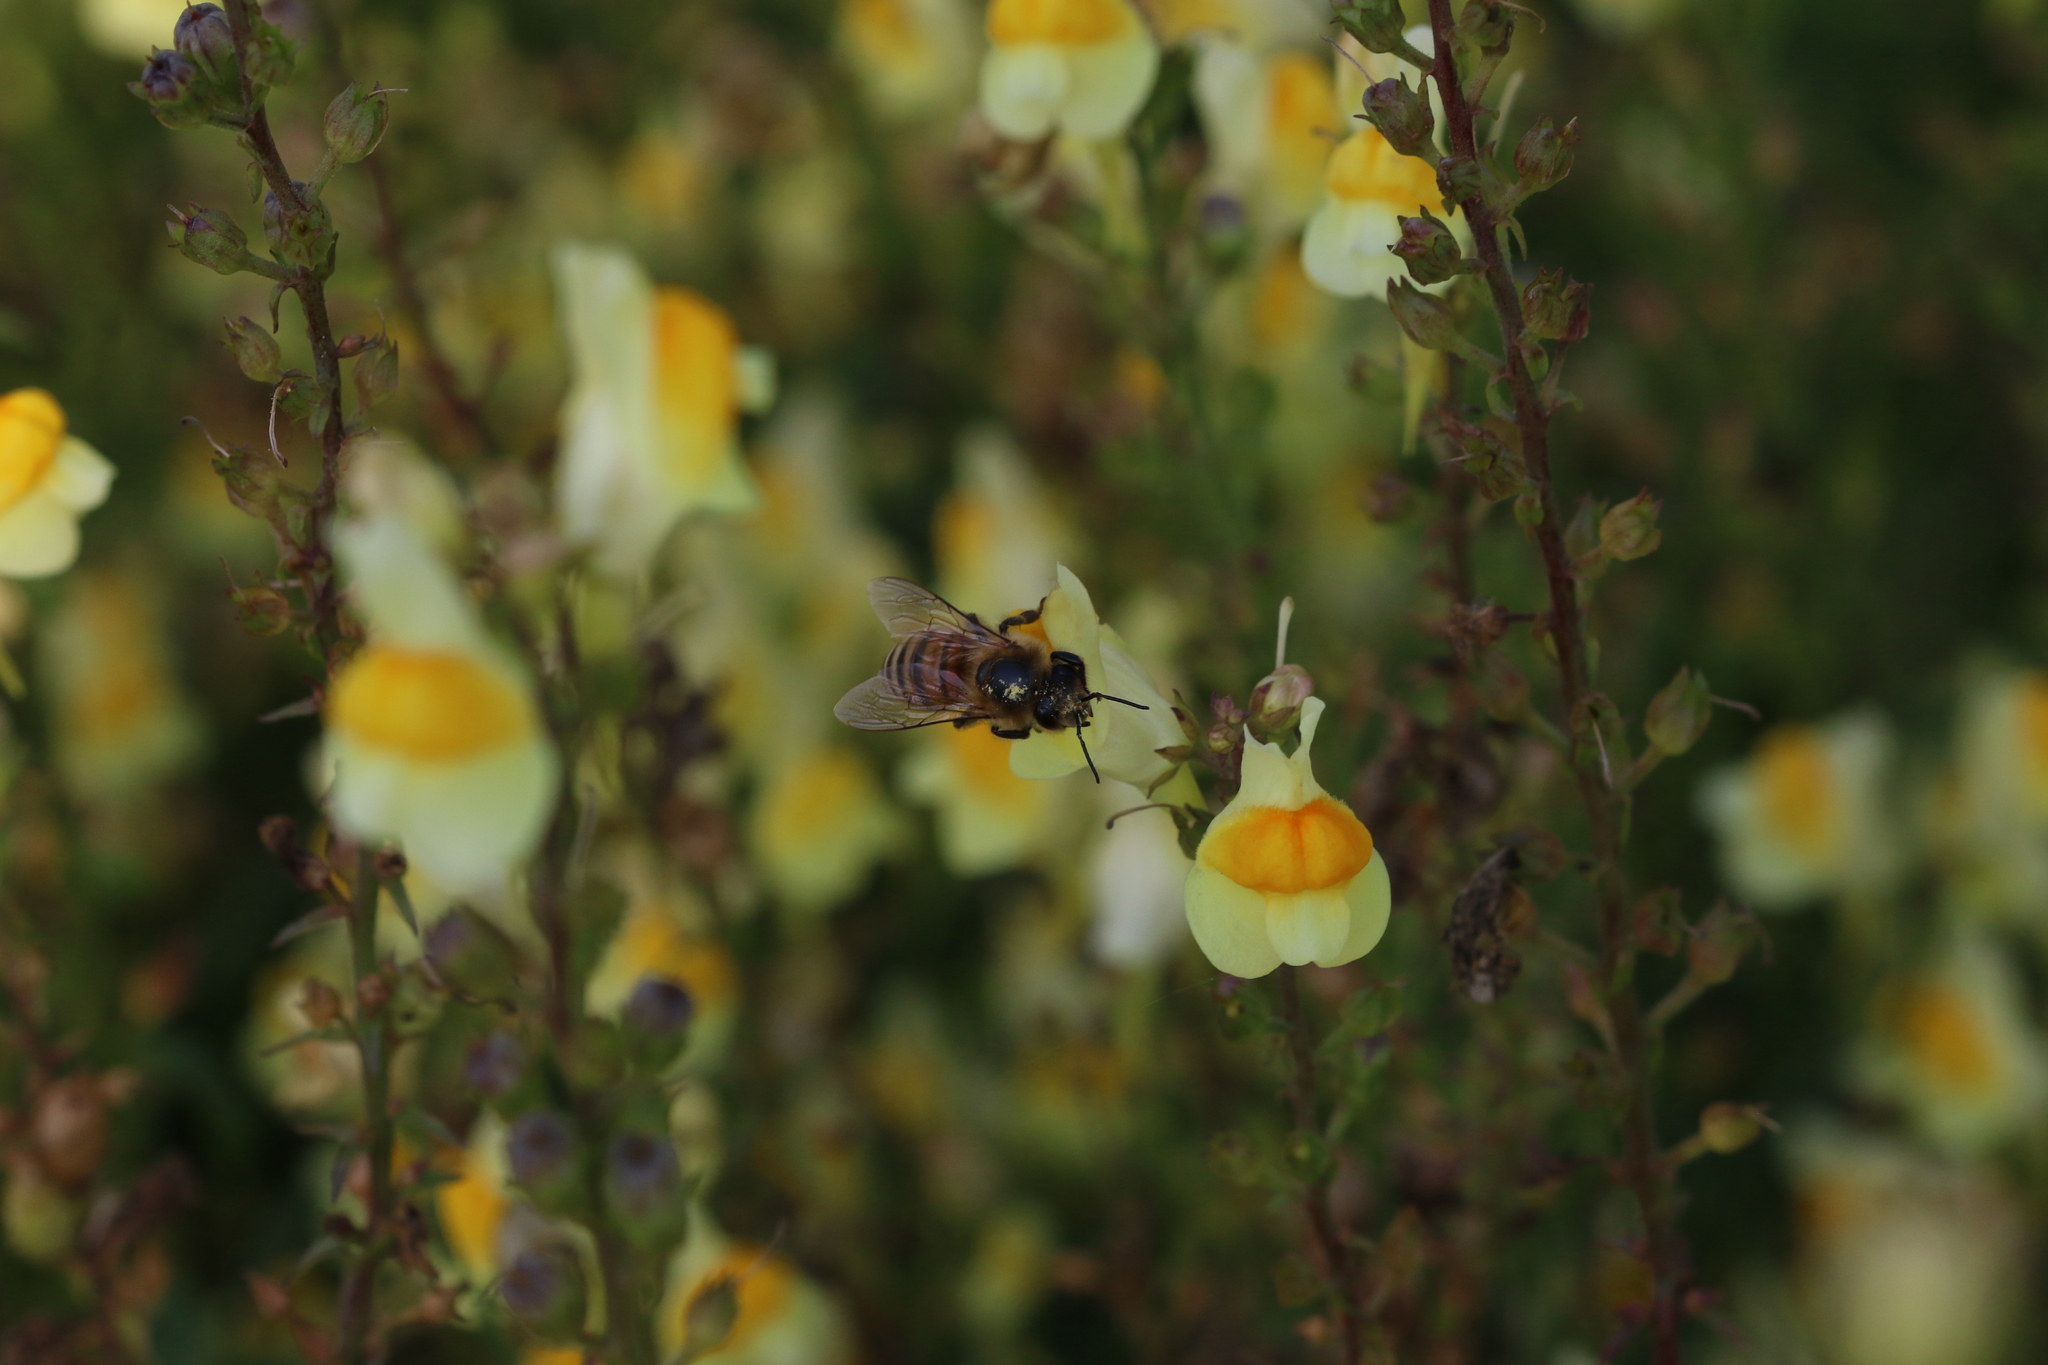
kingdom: Animalia
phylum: Arthropoda
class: Insecta
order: Hymenoptera
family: Apidae
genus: Apis
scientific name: Apis mellifera
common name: Honey bee
